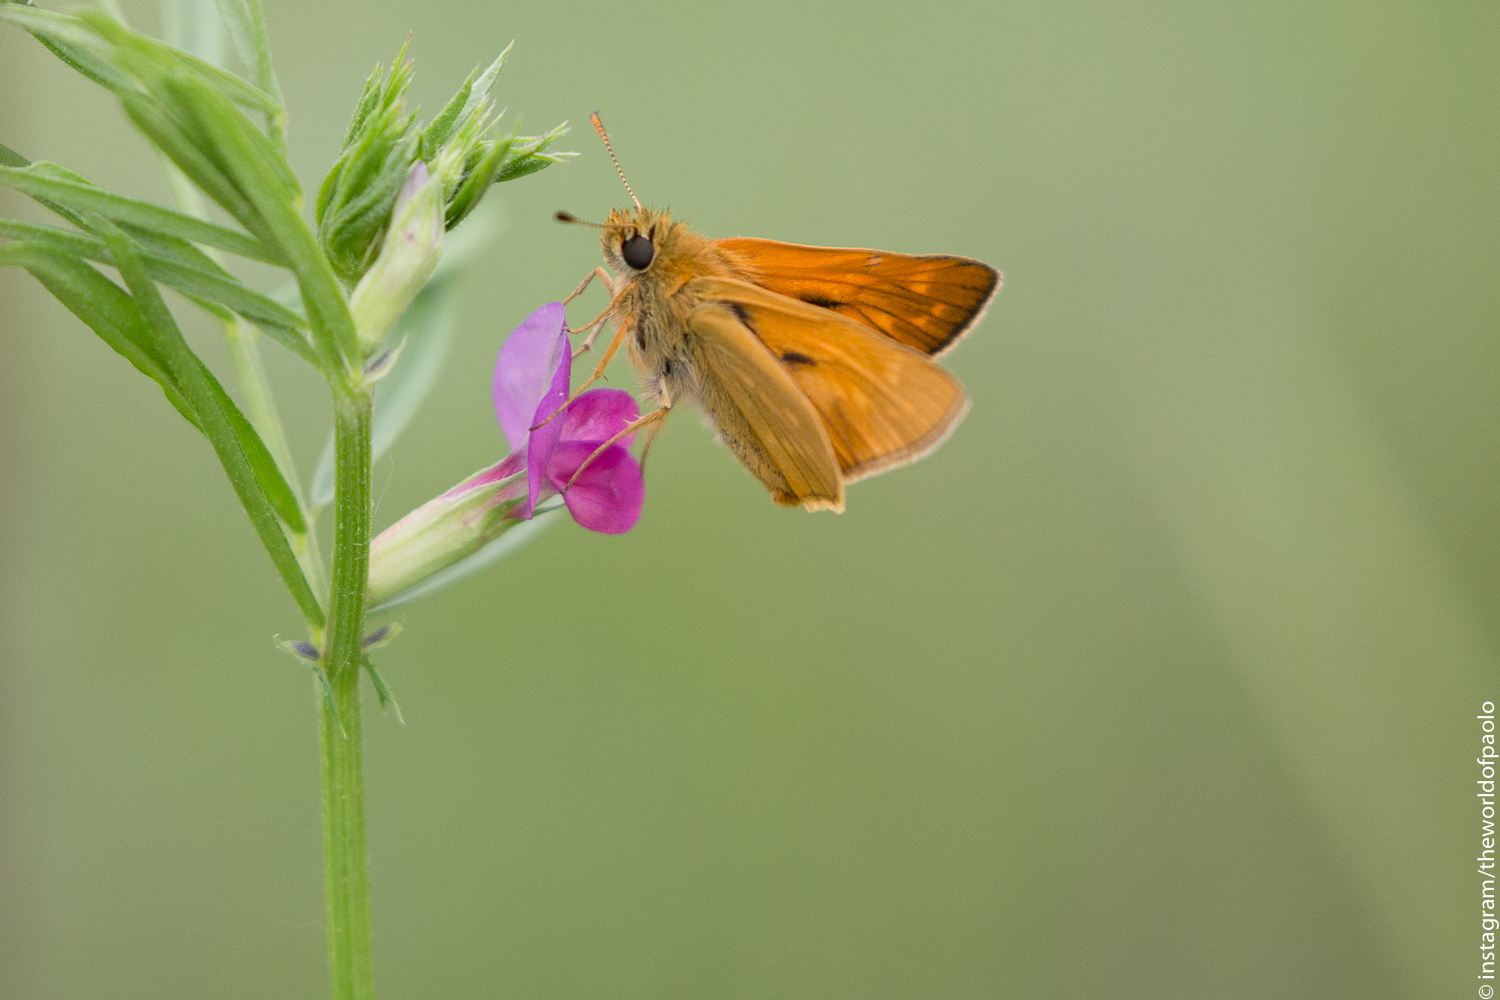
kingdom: Animalia
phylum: Arthropoda
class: Insecta
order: Lepidoptera
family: Hesperiidae
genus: Ochlodes
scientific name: Ochlodes venata
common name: Large skipper
